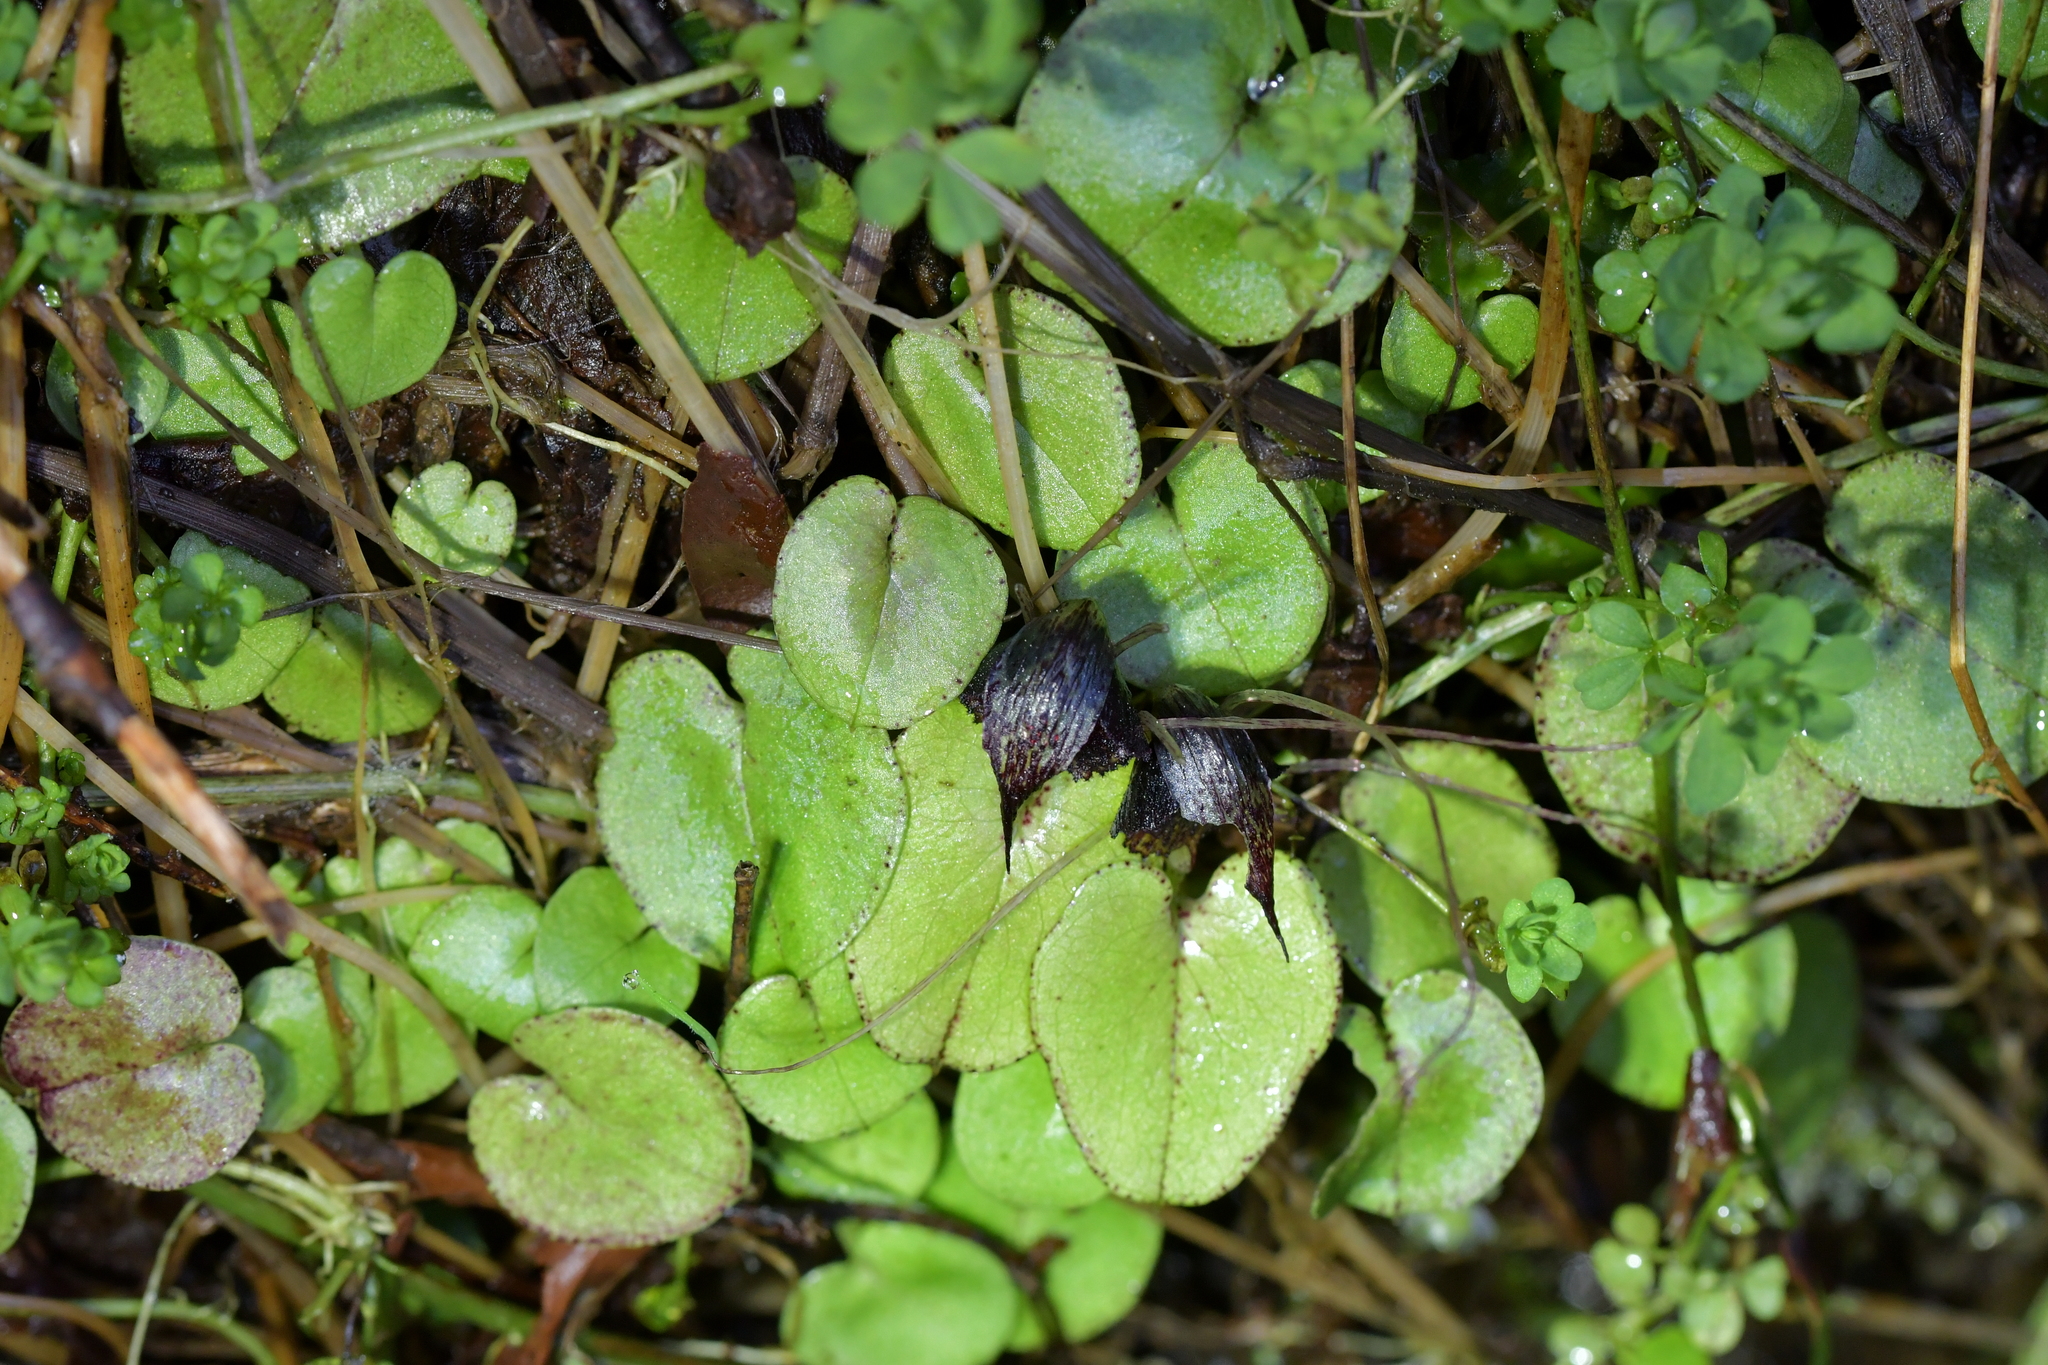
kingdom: Plantae
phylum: Tracheophyta
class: Liliopsida
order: Asparagales
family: Orchidaceae
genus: Corybas
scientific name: Corybas iridescens
